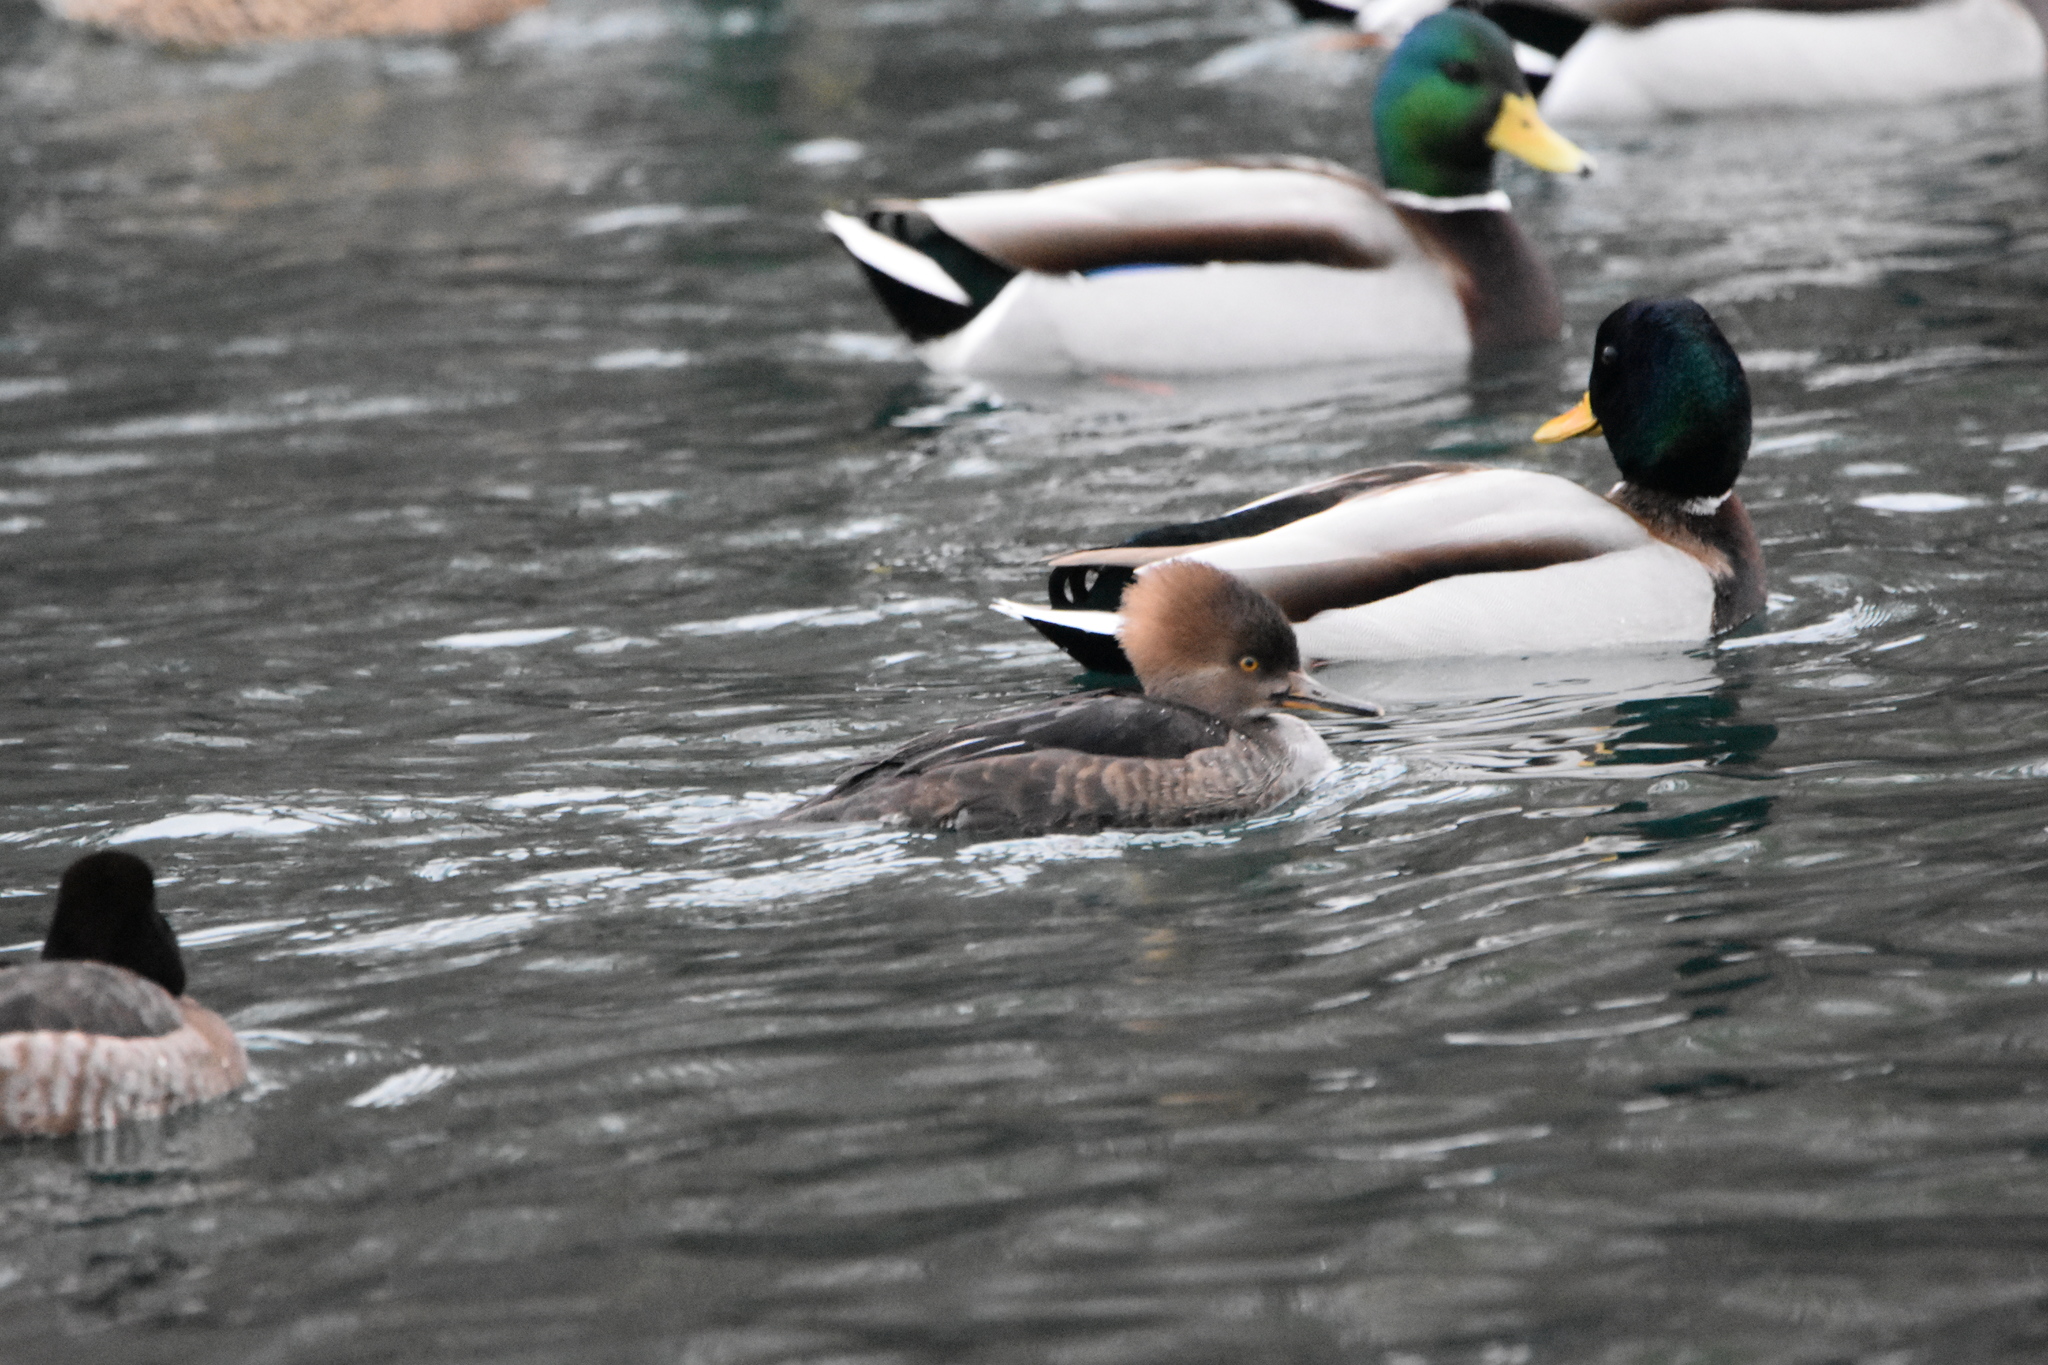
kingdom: Animalia
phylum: Chordata
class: Aves
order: Anseriformes
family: Anatidae
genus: Lophodytes
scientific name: Lophodytes cucullatus
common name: Hooded merganser
